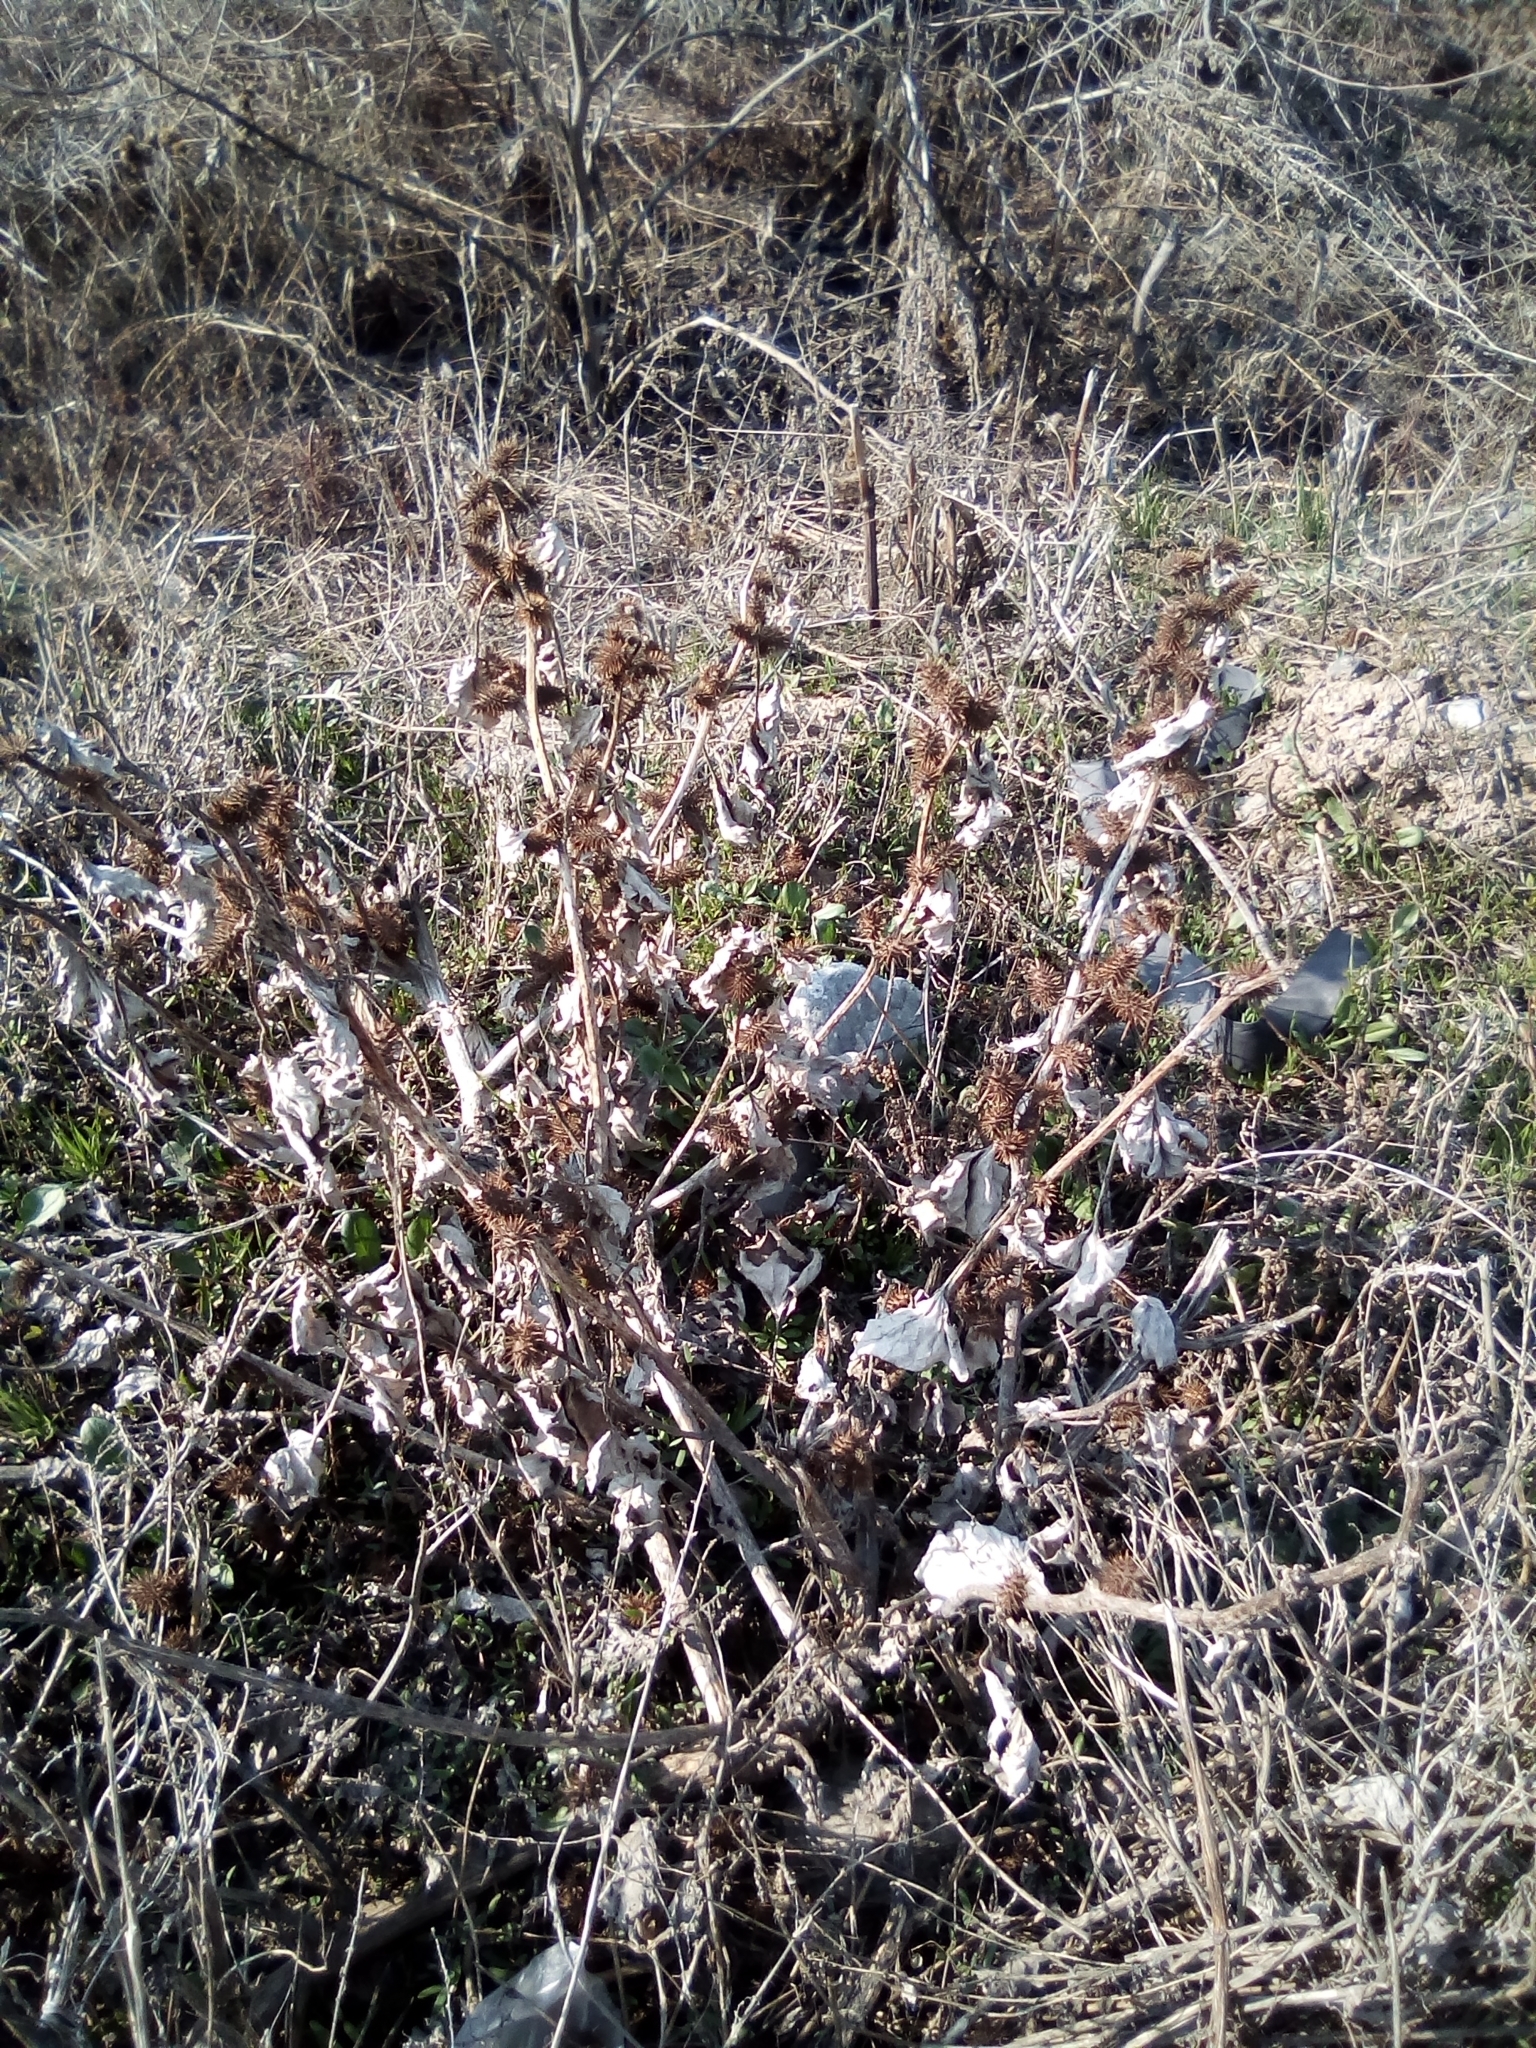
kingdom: Plantae
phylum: Tracheophyta
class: Magnoliopsida
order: Asterales
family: Asteraceae
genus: Xanthium
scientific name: Xanthium orientale
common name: Californian burr
